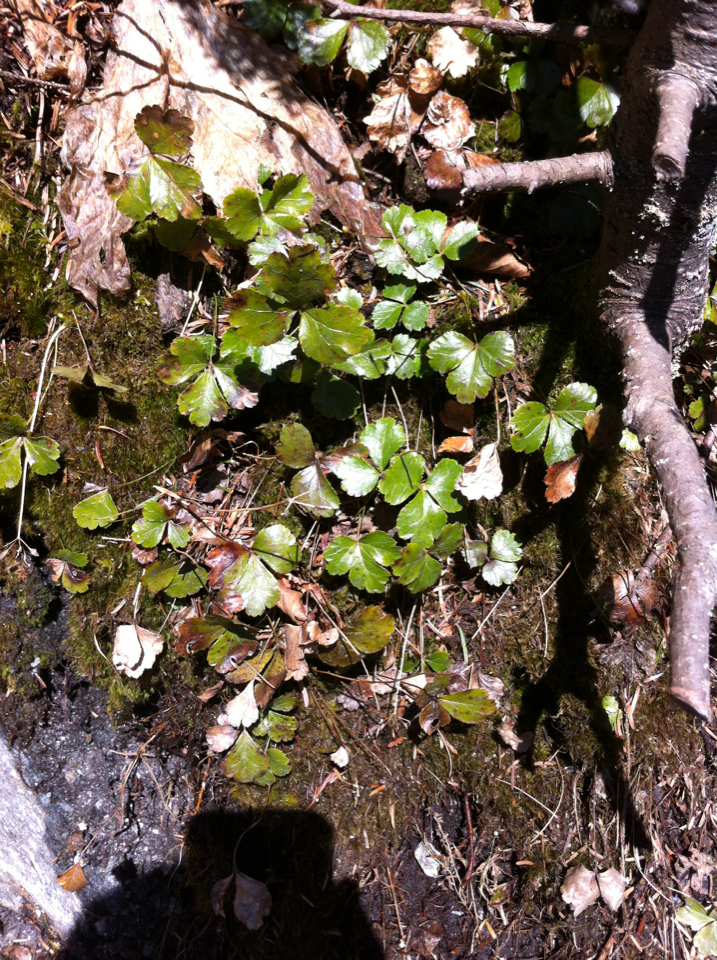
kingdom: Plantae
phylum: Tracheophyta
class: Magnoliopsida
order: Ranunculales
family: Ranunculaceae
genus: Coptis
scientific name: Coptis trifolia
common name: Canker-root
